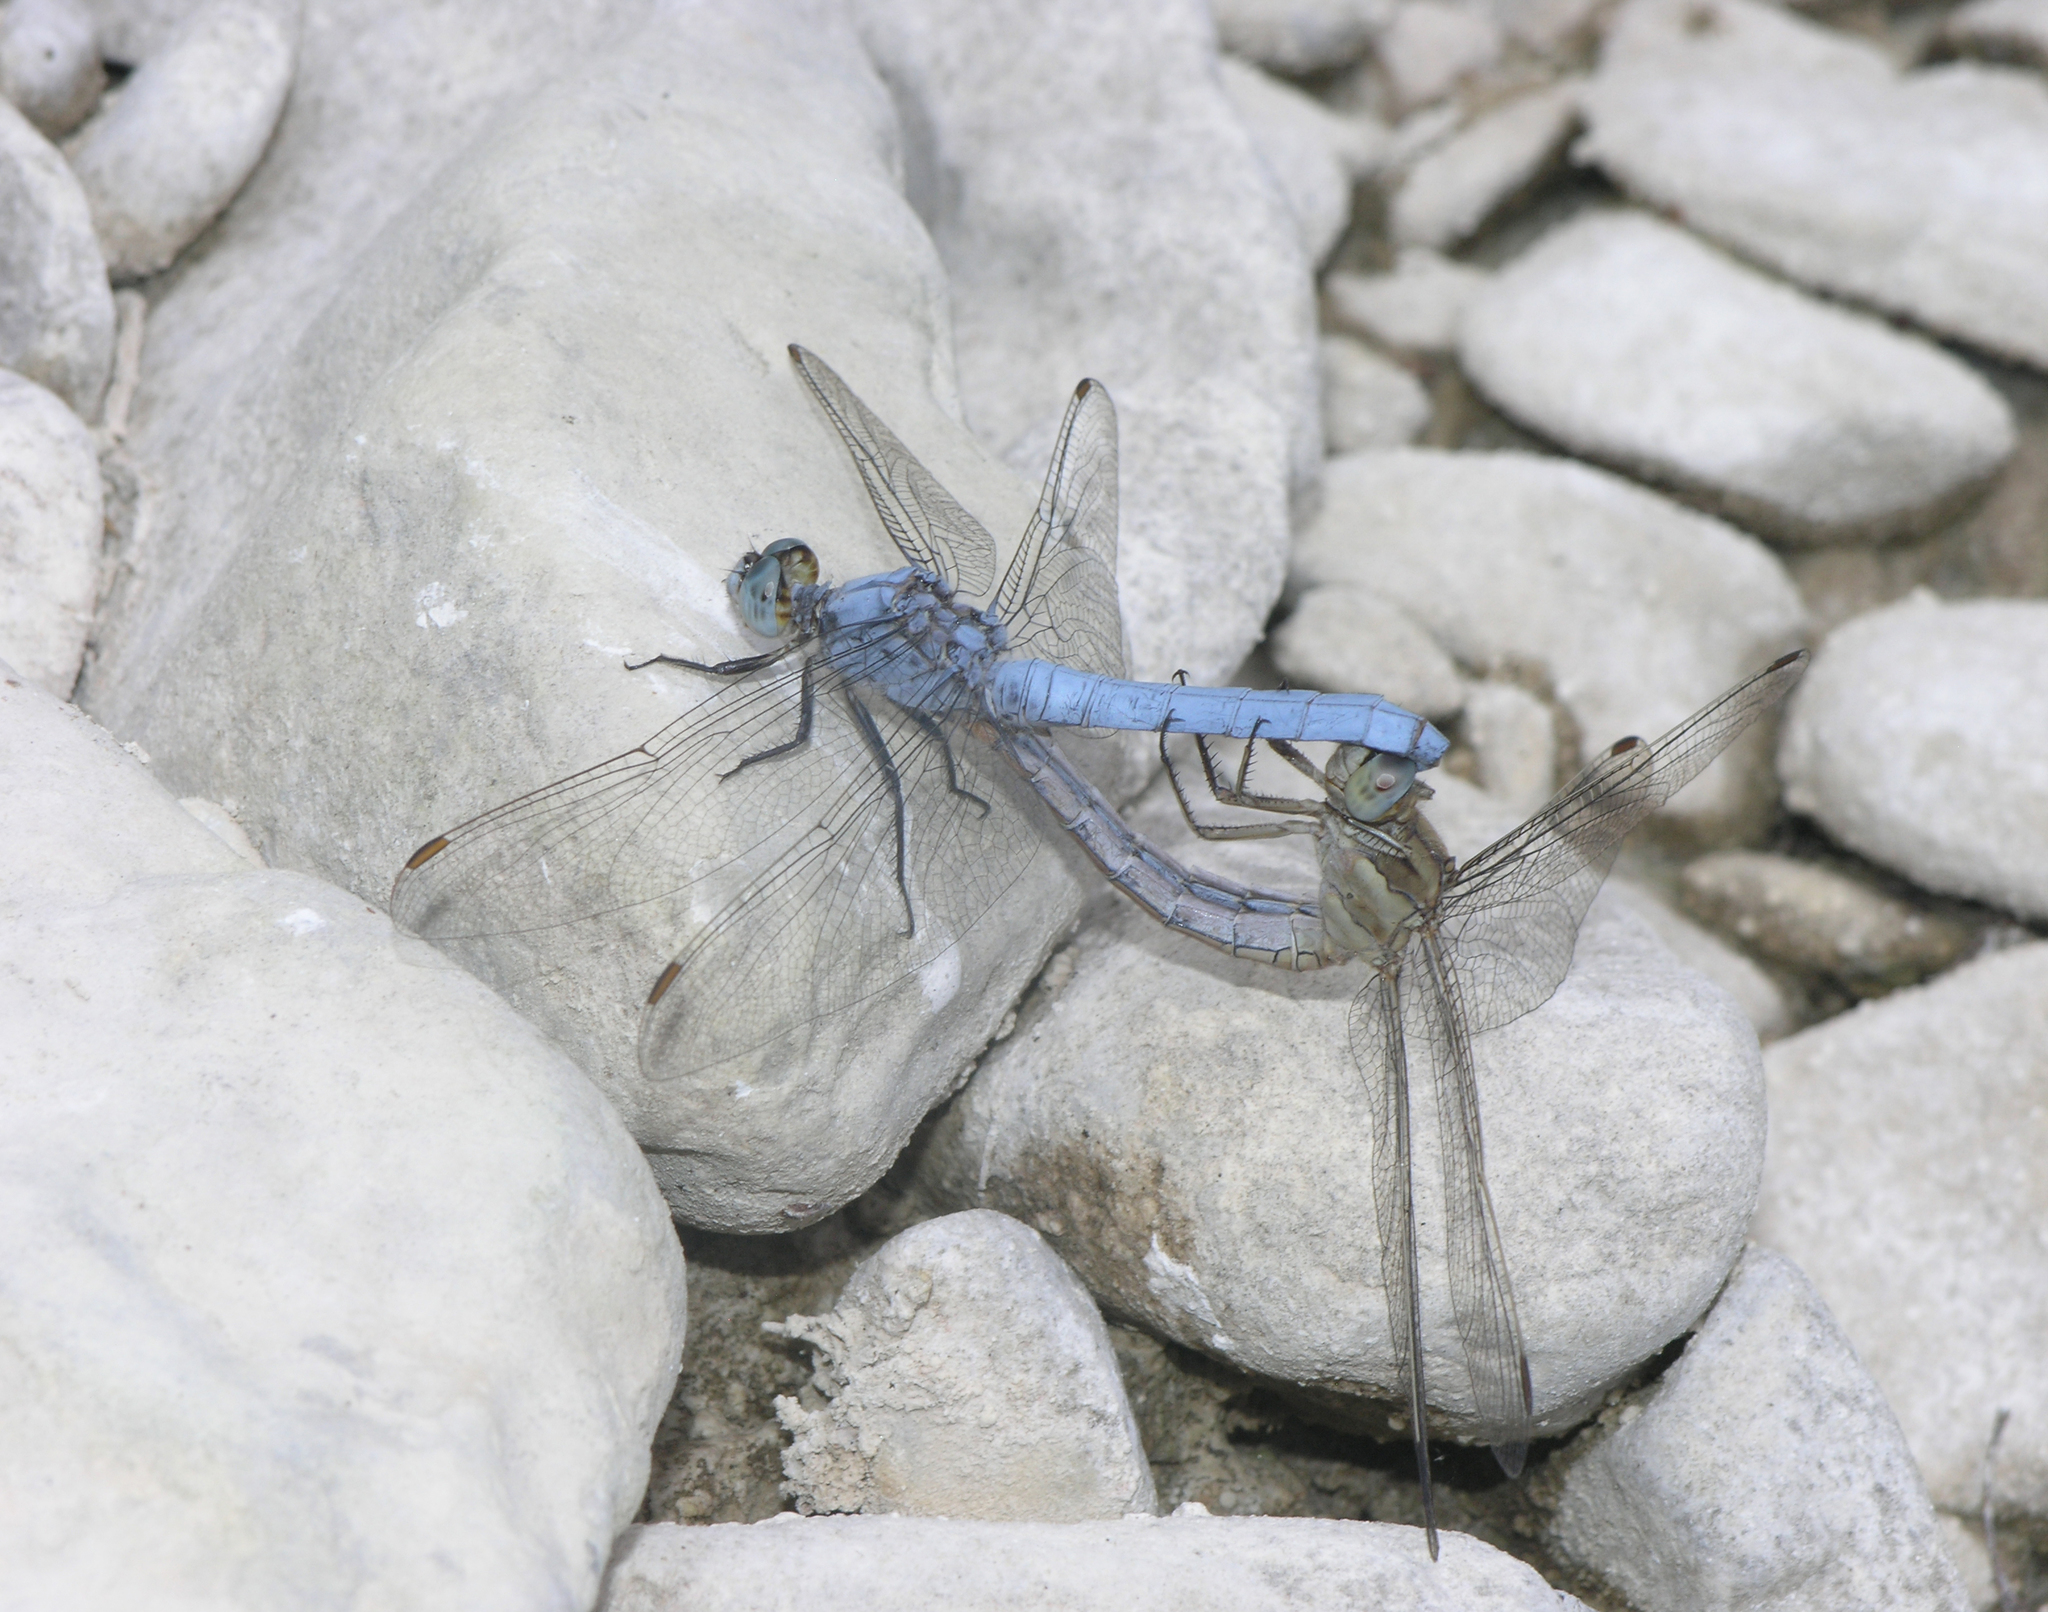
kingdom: Animalia
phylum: Arthropoda
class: Insecta
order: Odonata
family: Libellulidae
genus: Orthetrum
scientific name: Orthetrum brunneum
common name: Southern skimmer
